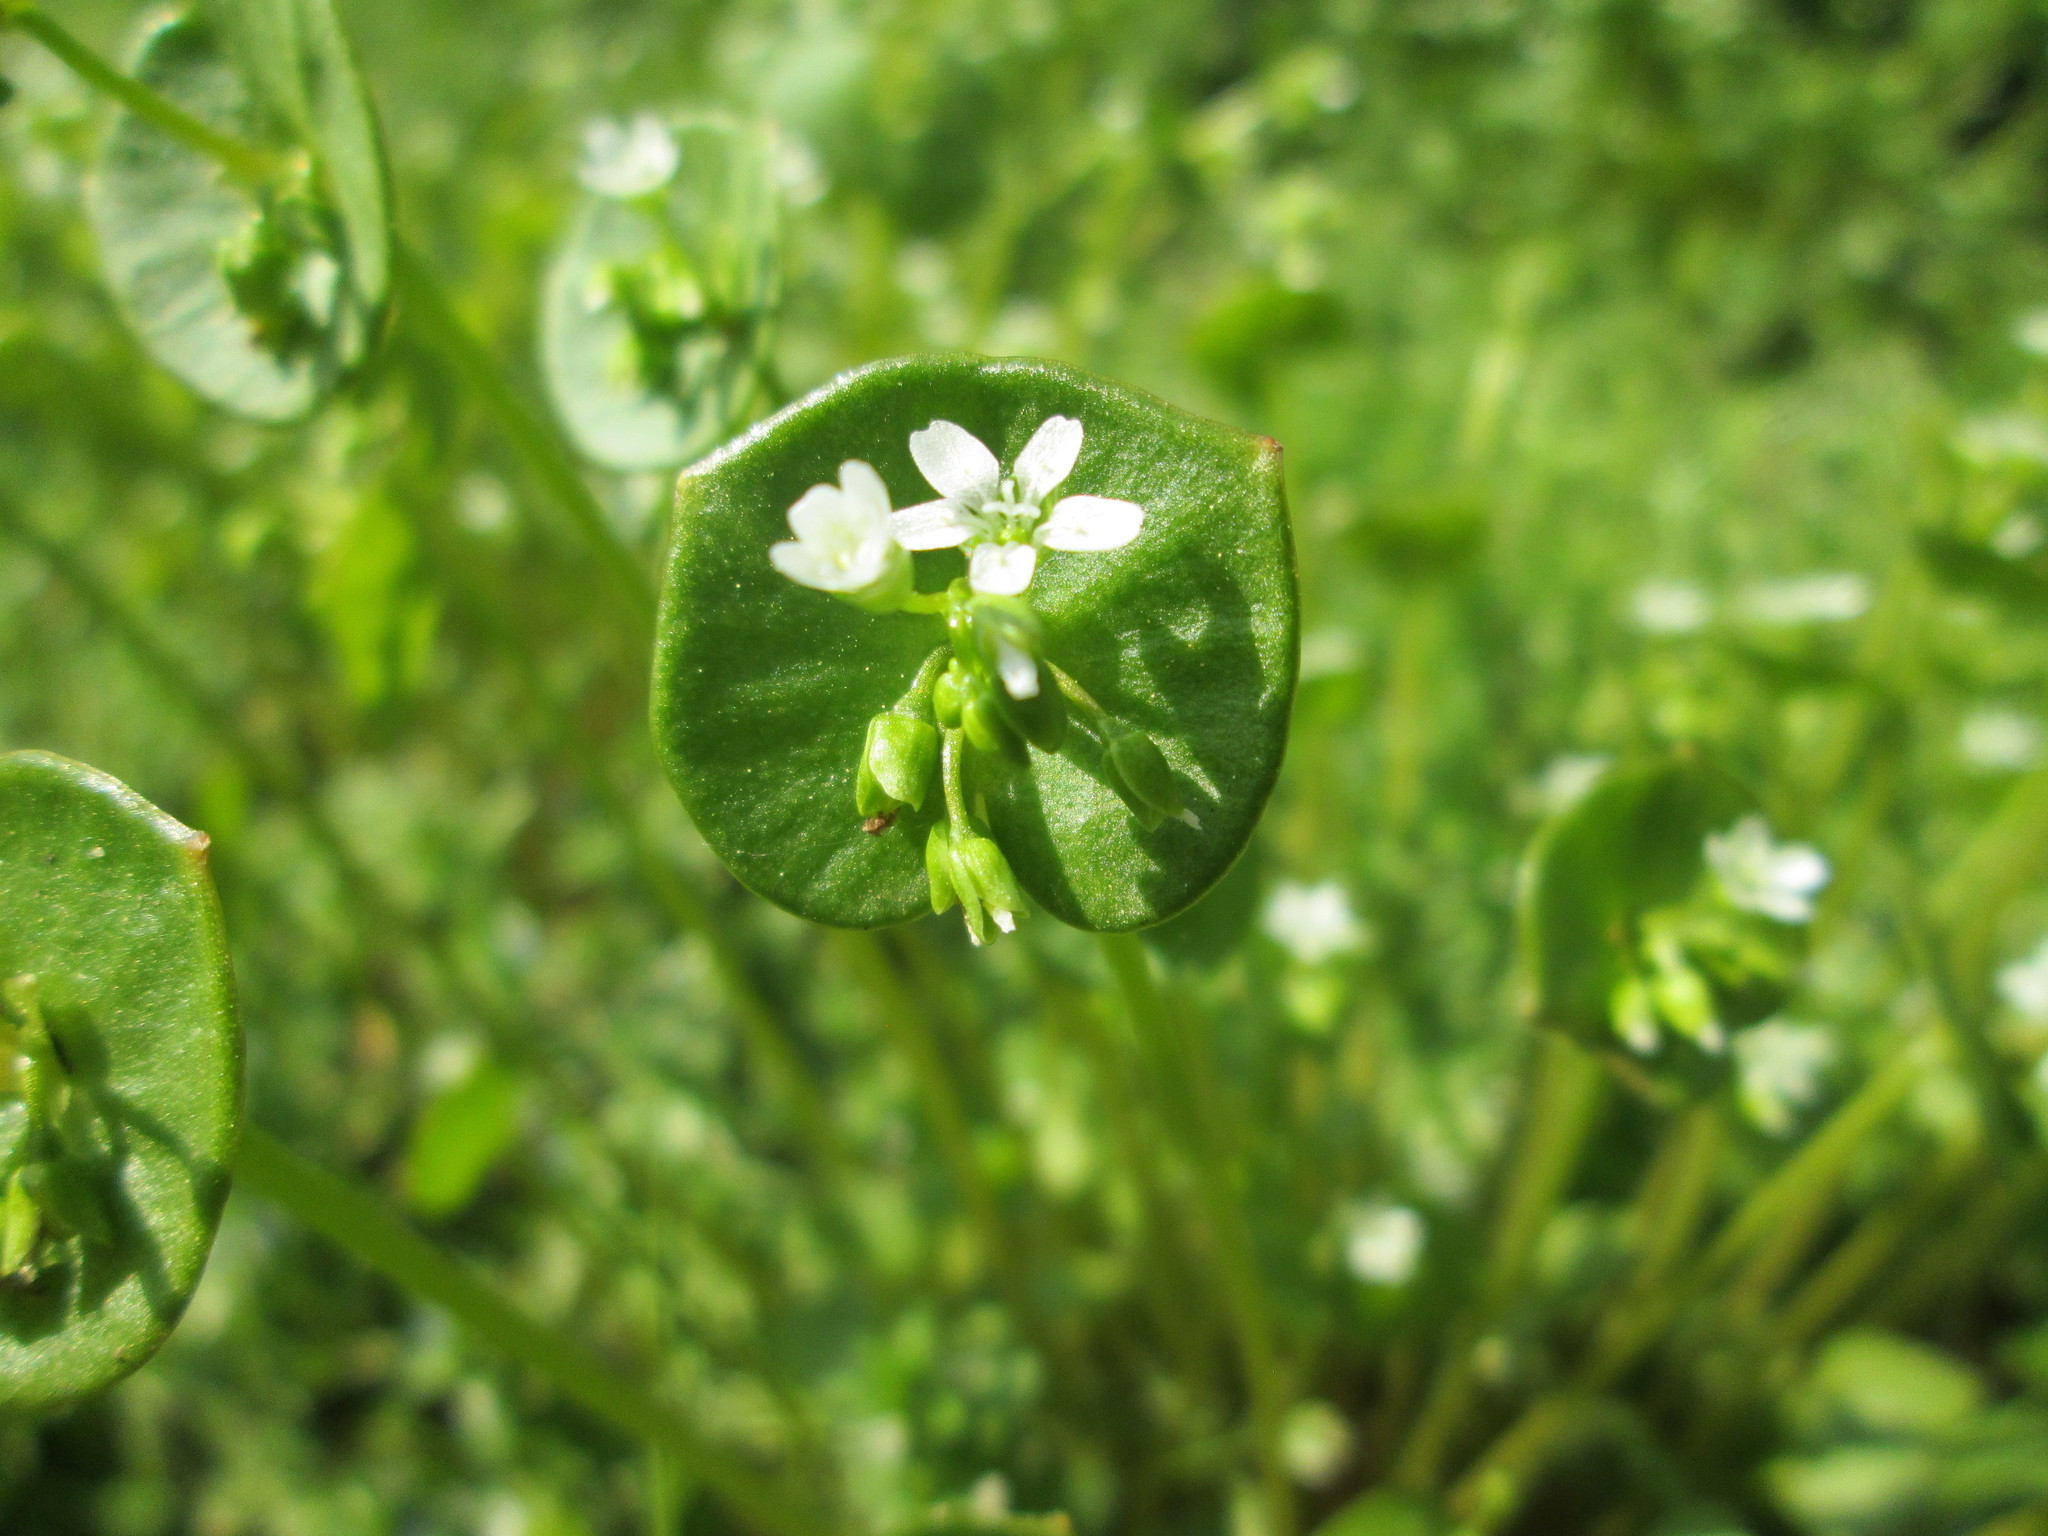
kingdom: Plantae
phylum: Tracheophyta
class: Magnoliopsida
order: Caryophyllales
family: Montiaceae
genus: Claytonia
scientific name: Claytonia perfoliata
